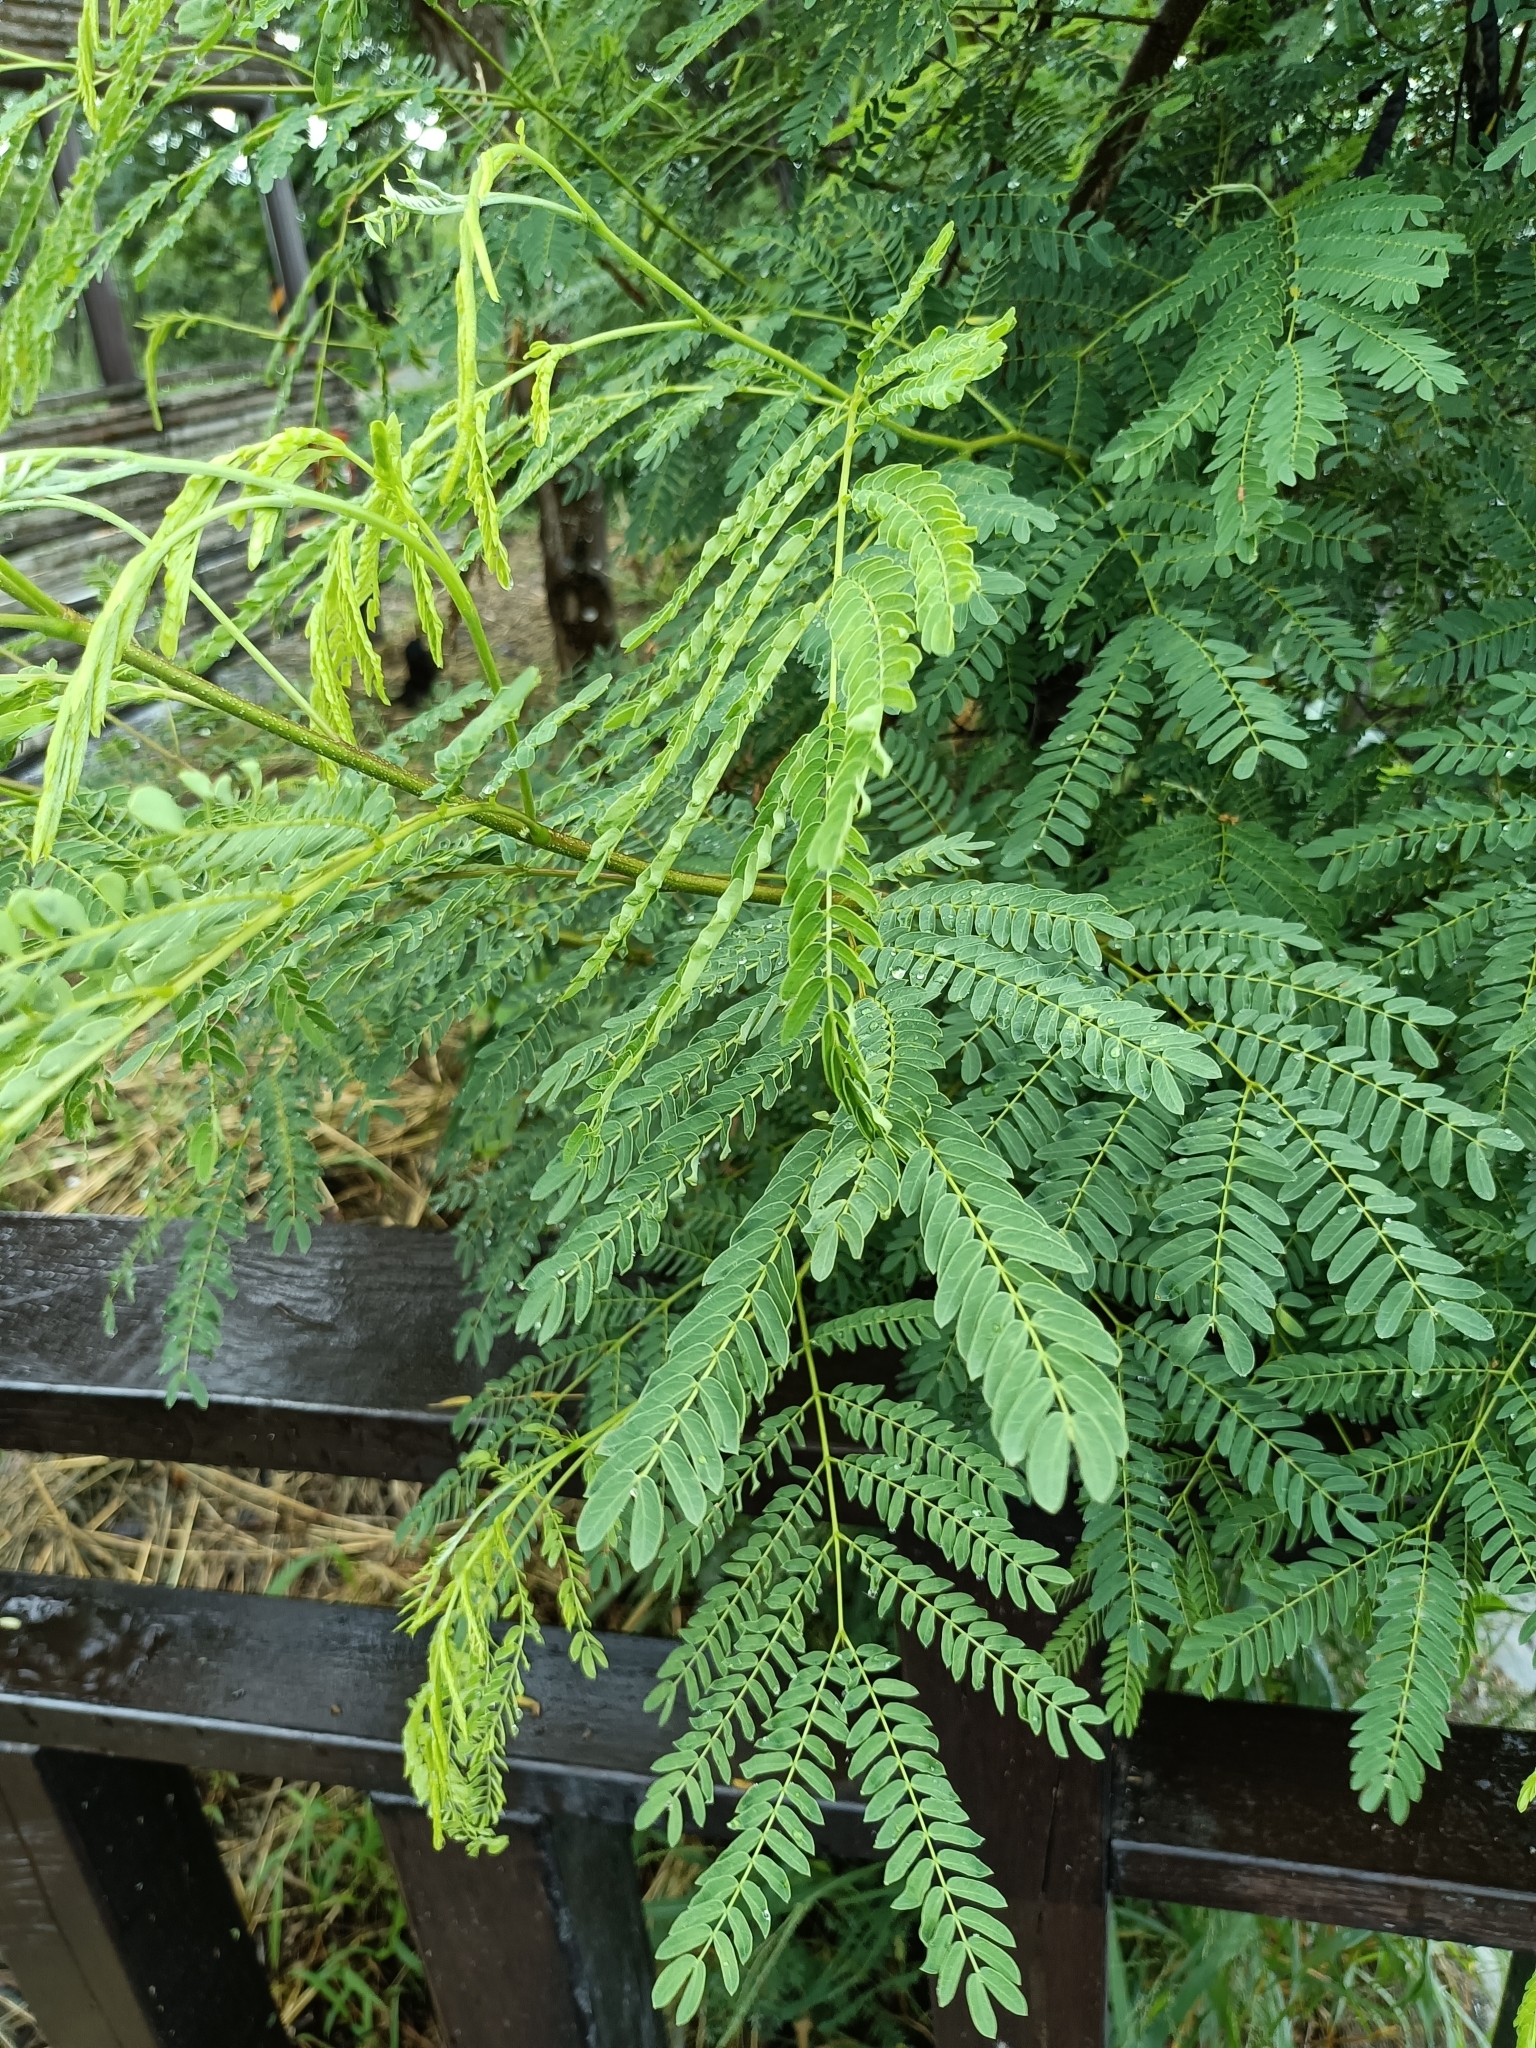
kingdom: Plantae
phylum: Tracheophyta
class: Magnoliopsida
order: Fabales
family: Fabaceae
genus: Leucaena
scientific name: Leucaena leucocephala
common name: White leadtree
